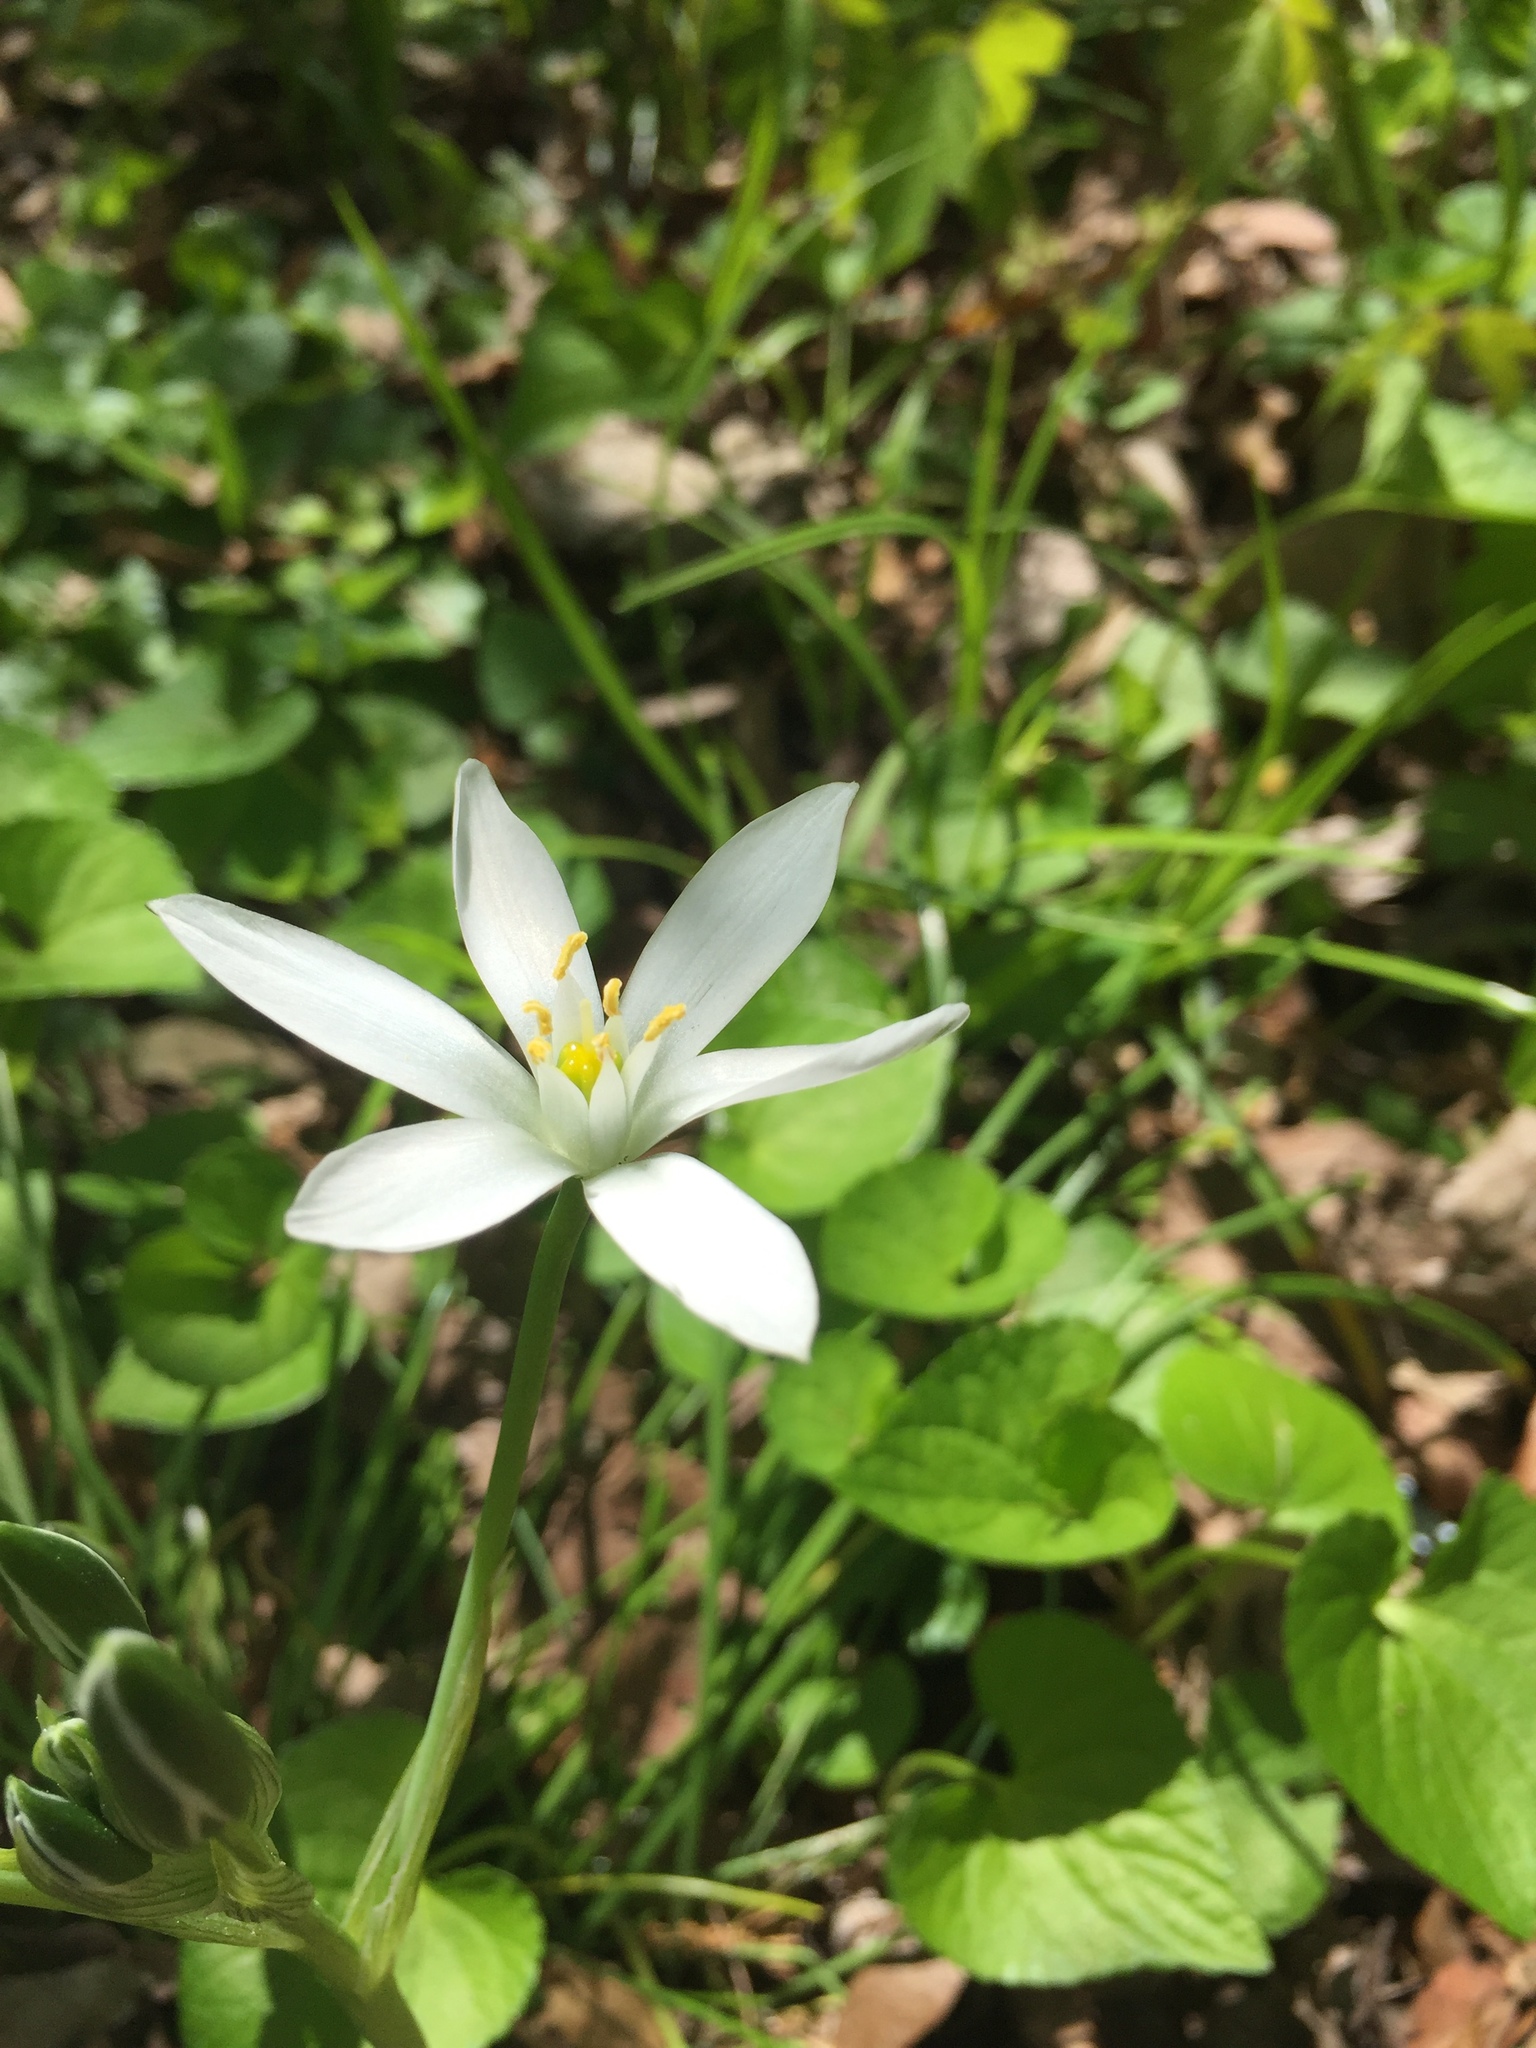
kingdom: Plantae
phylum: Tracheophyta
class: Liliopsida
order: Asparagales
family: Asparagaceae
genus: Ornithogalum
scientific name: Ornithogalum umbellatum
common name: Garden star-of-bethlehem
